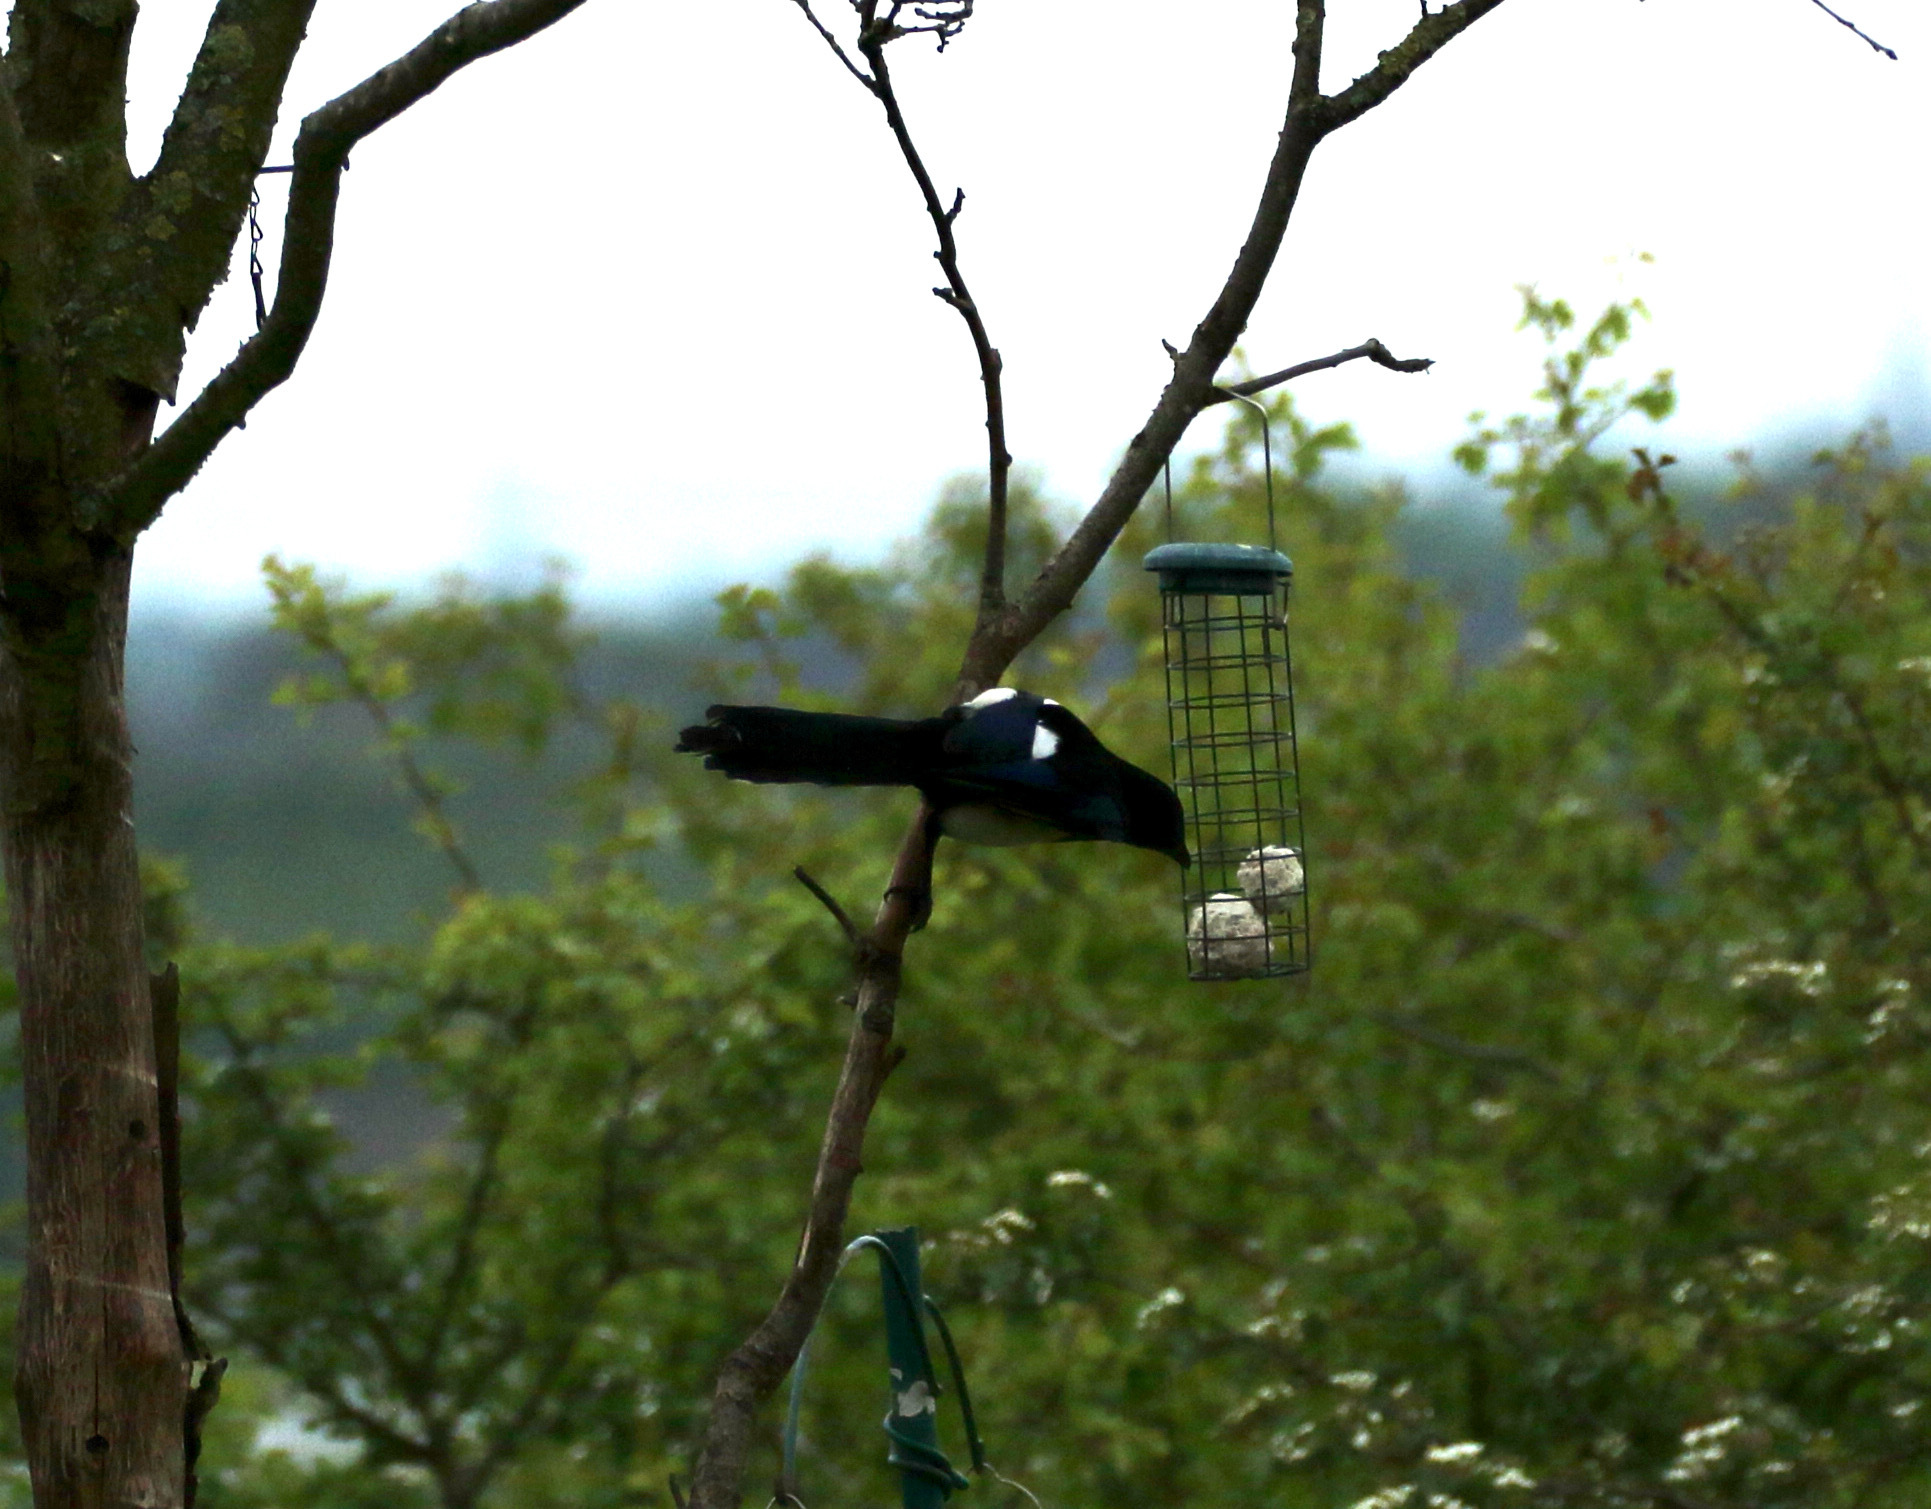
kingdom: Animalia
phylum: Chordata
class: Aves
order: Passeriformes
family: Corvidae
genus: Pica
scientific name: Pica pica
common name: Eurasian magpie
